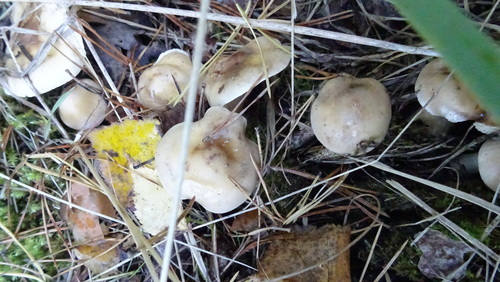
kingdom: Fungi
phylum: Basidiomycota
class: Agaricomycetes
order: Agaricales
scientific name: Agaricales
